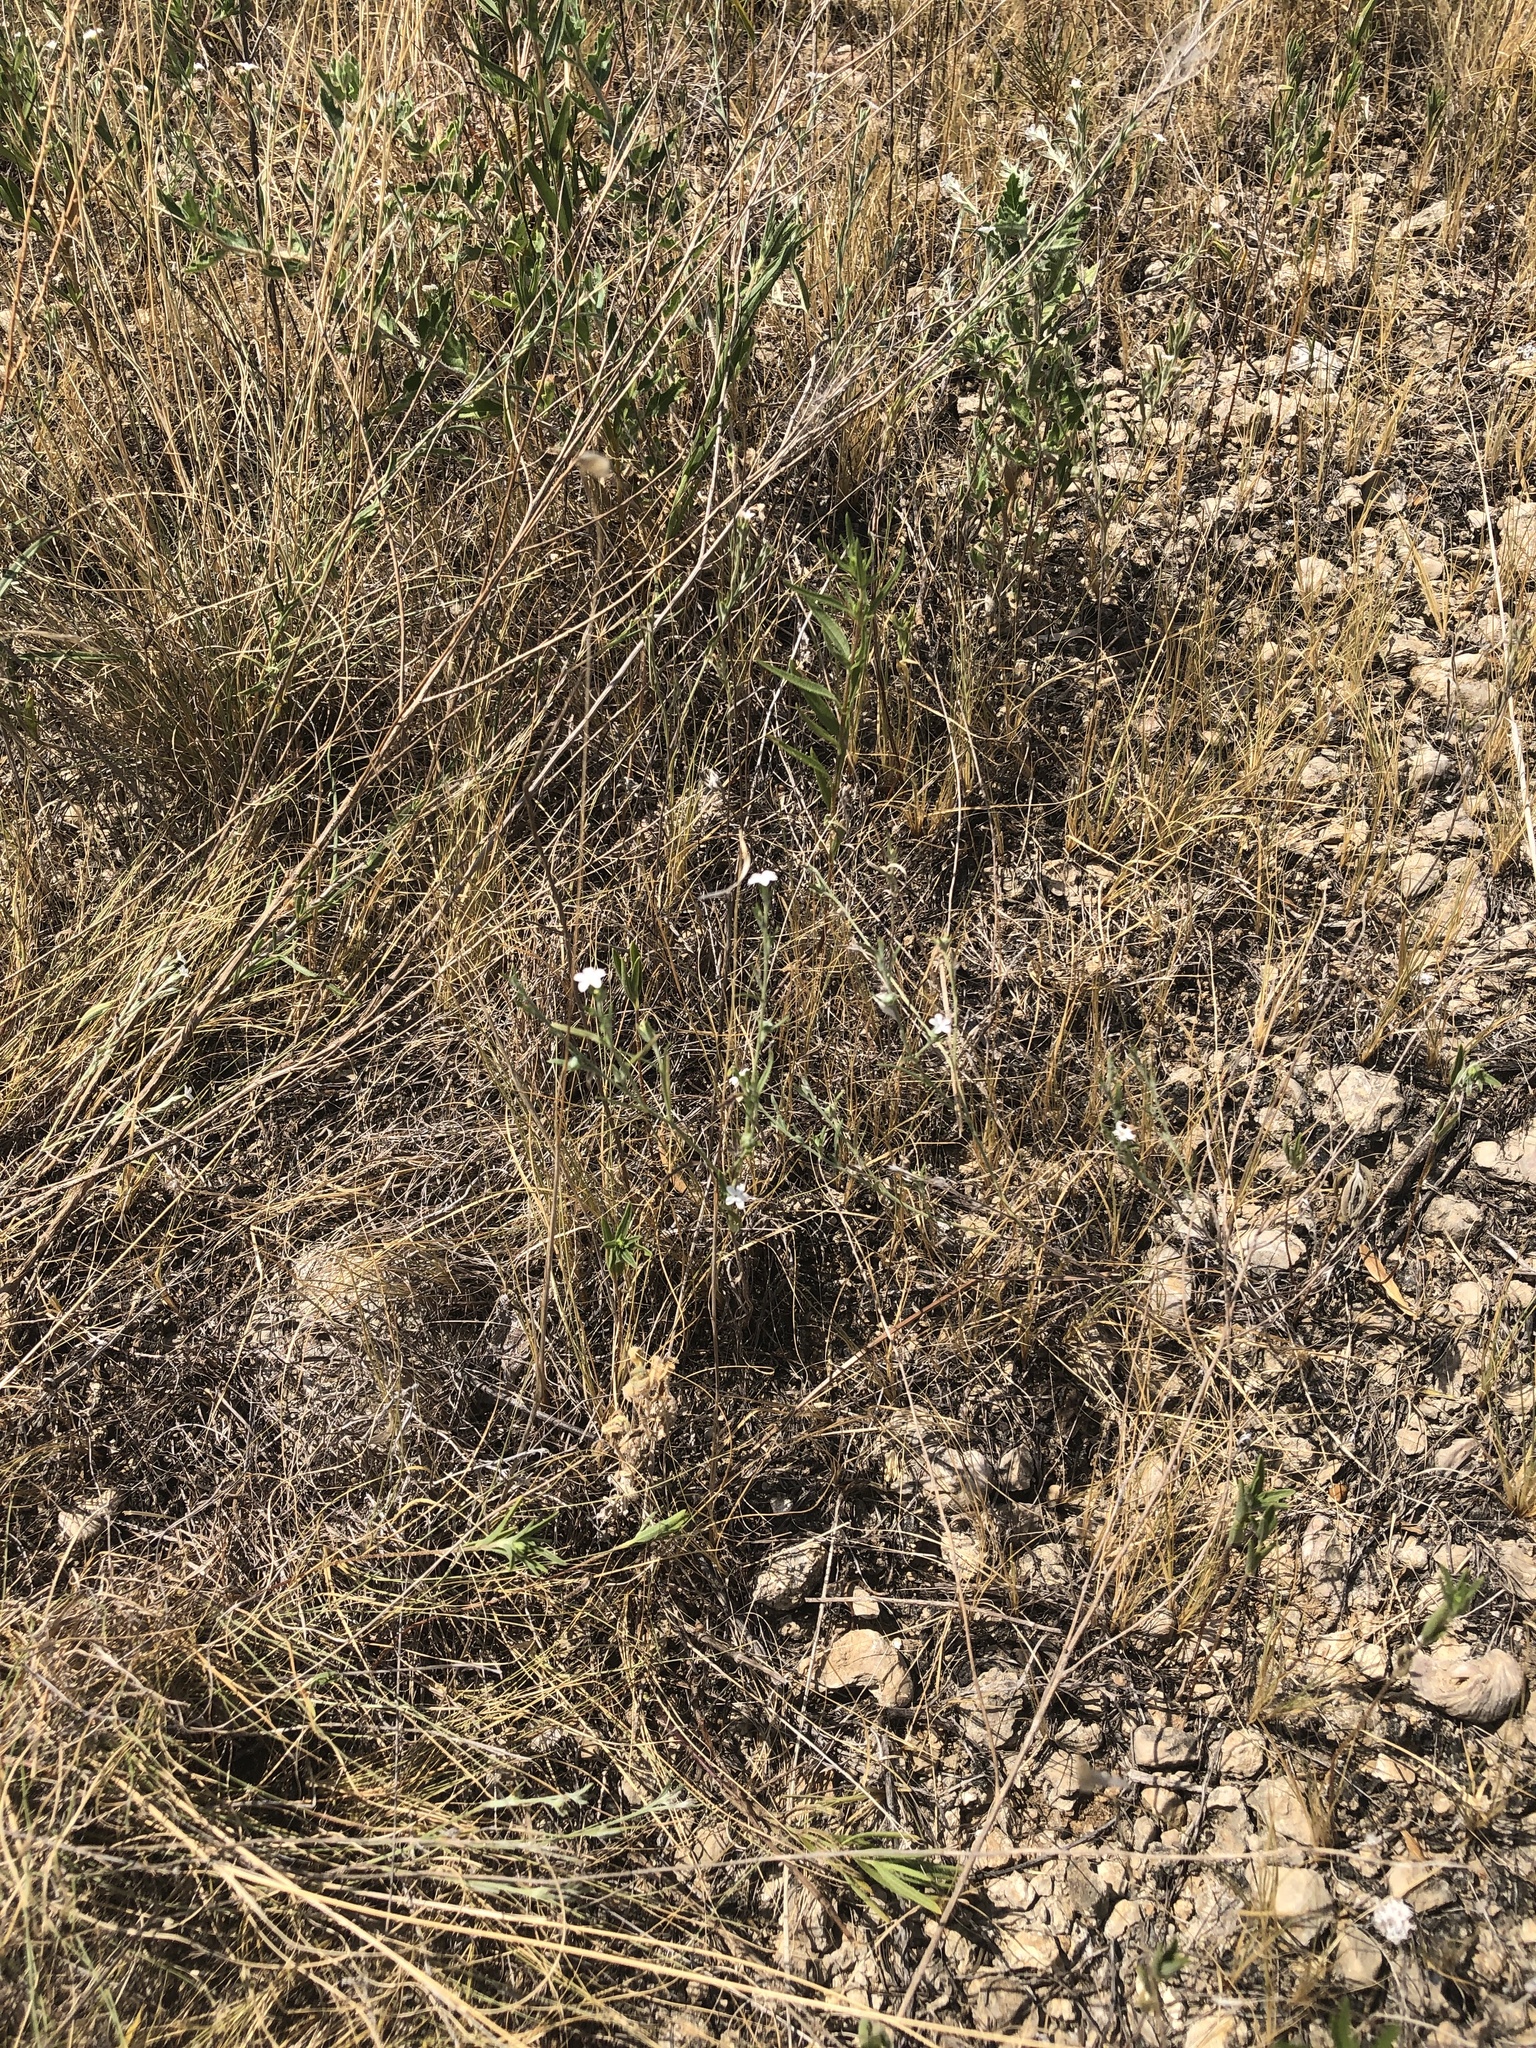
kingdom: Plantae
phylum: Tracheophyta
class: Magnoliopsida
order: Boraginales
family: Heliotropiaceae
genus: Euploca
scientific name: Euploca tenella
